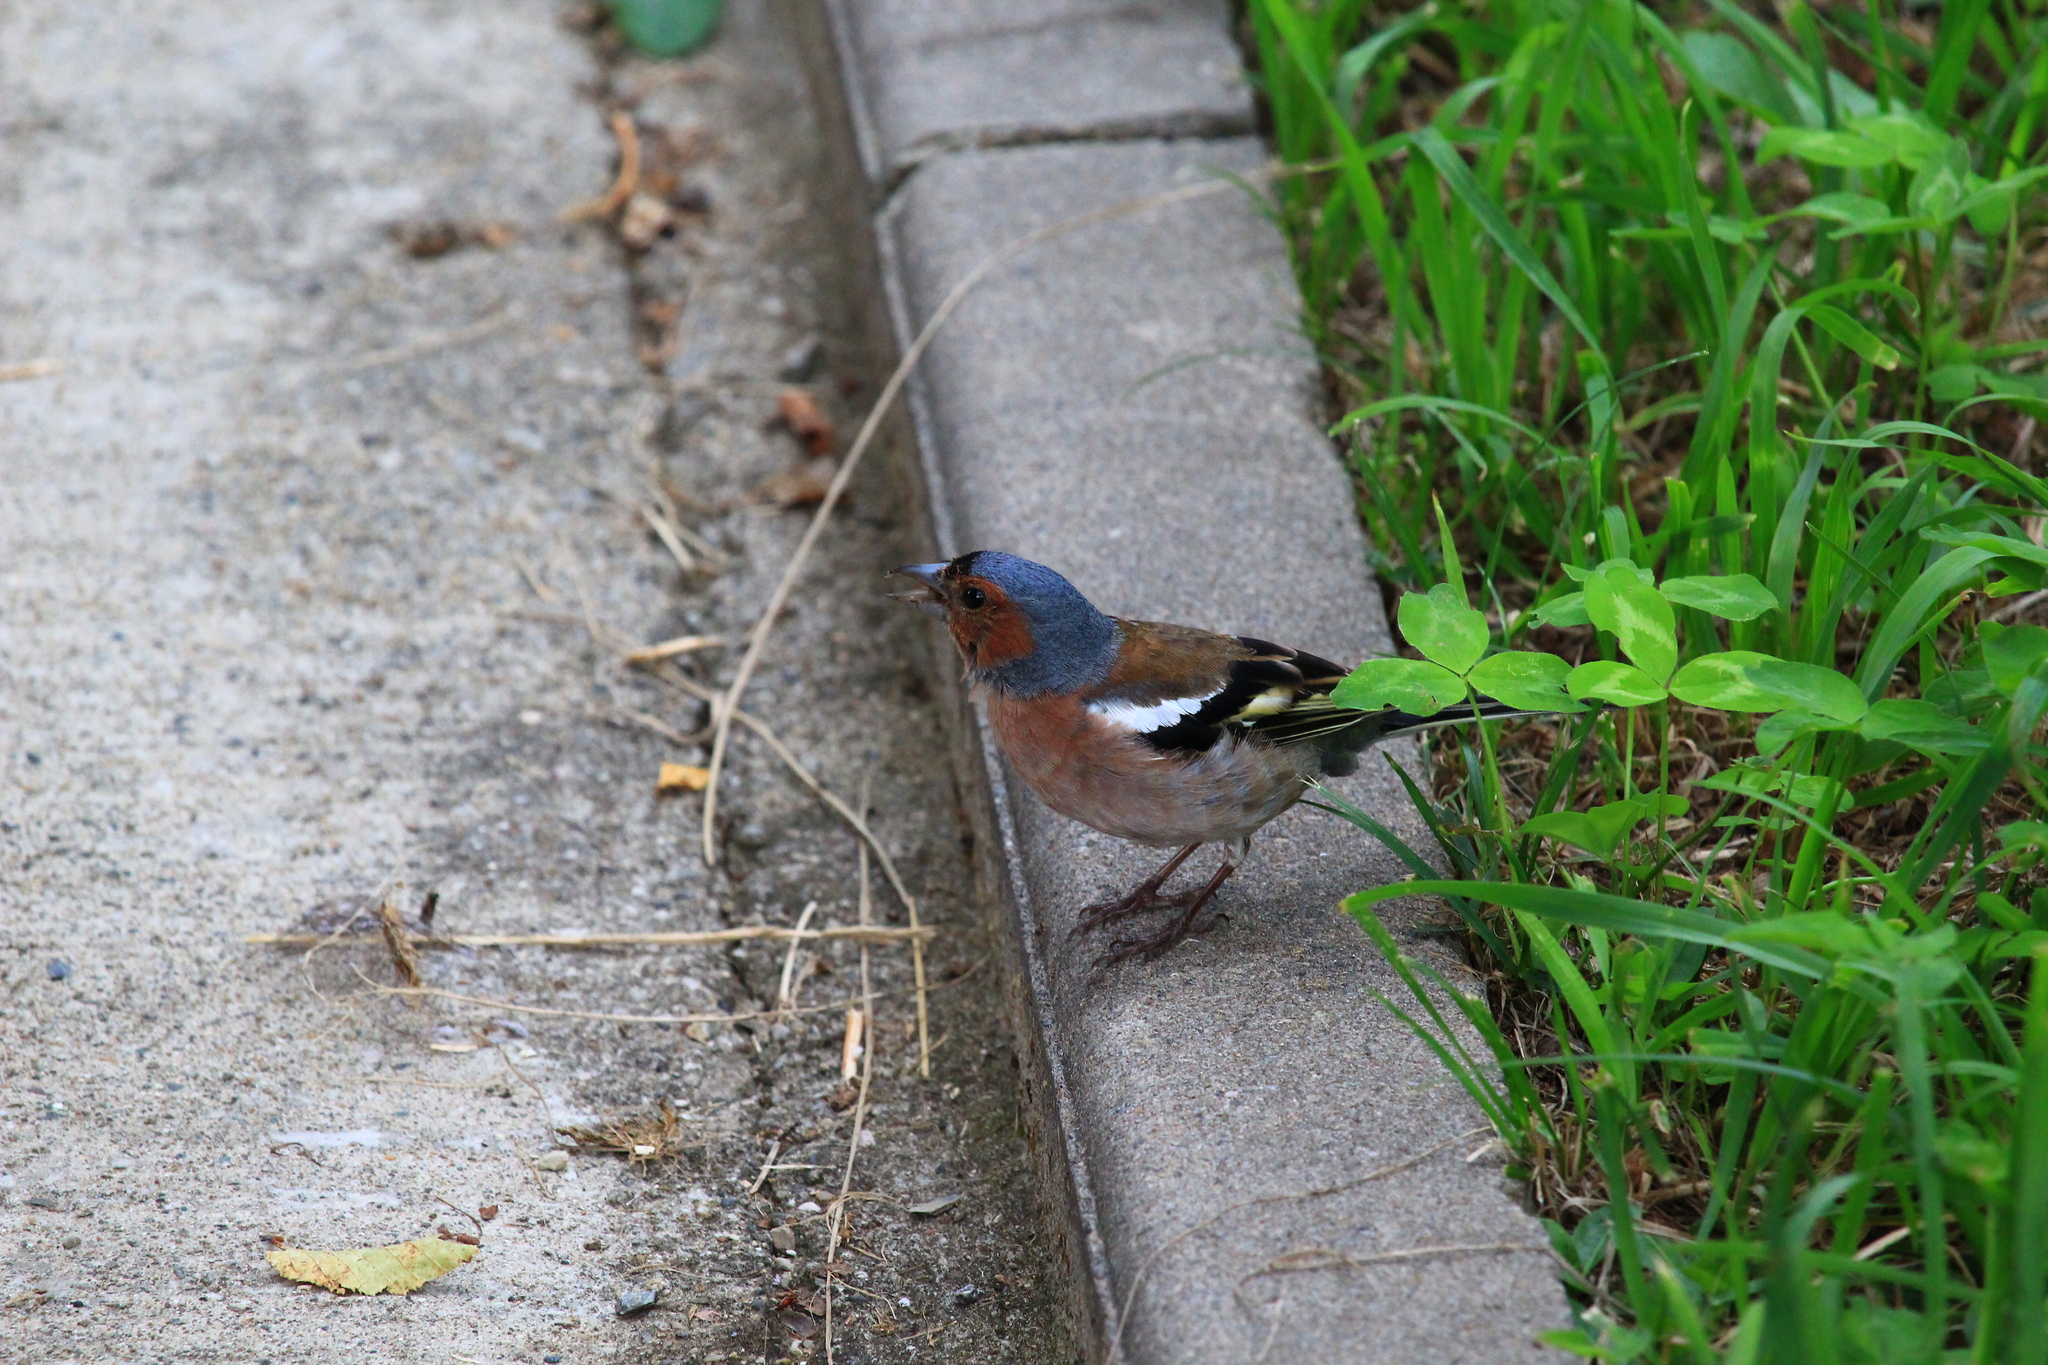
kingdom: Animalia
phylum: Chordata
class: Aves
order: Passeriformes
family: Fringillidae
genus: Fringilla
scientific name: Fringilla coelebs
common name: Common chaffinch
